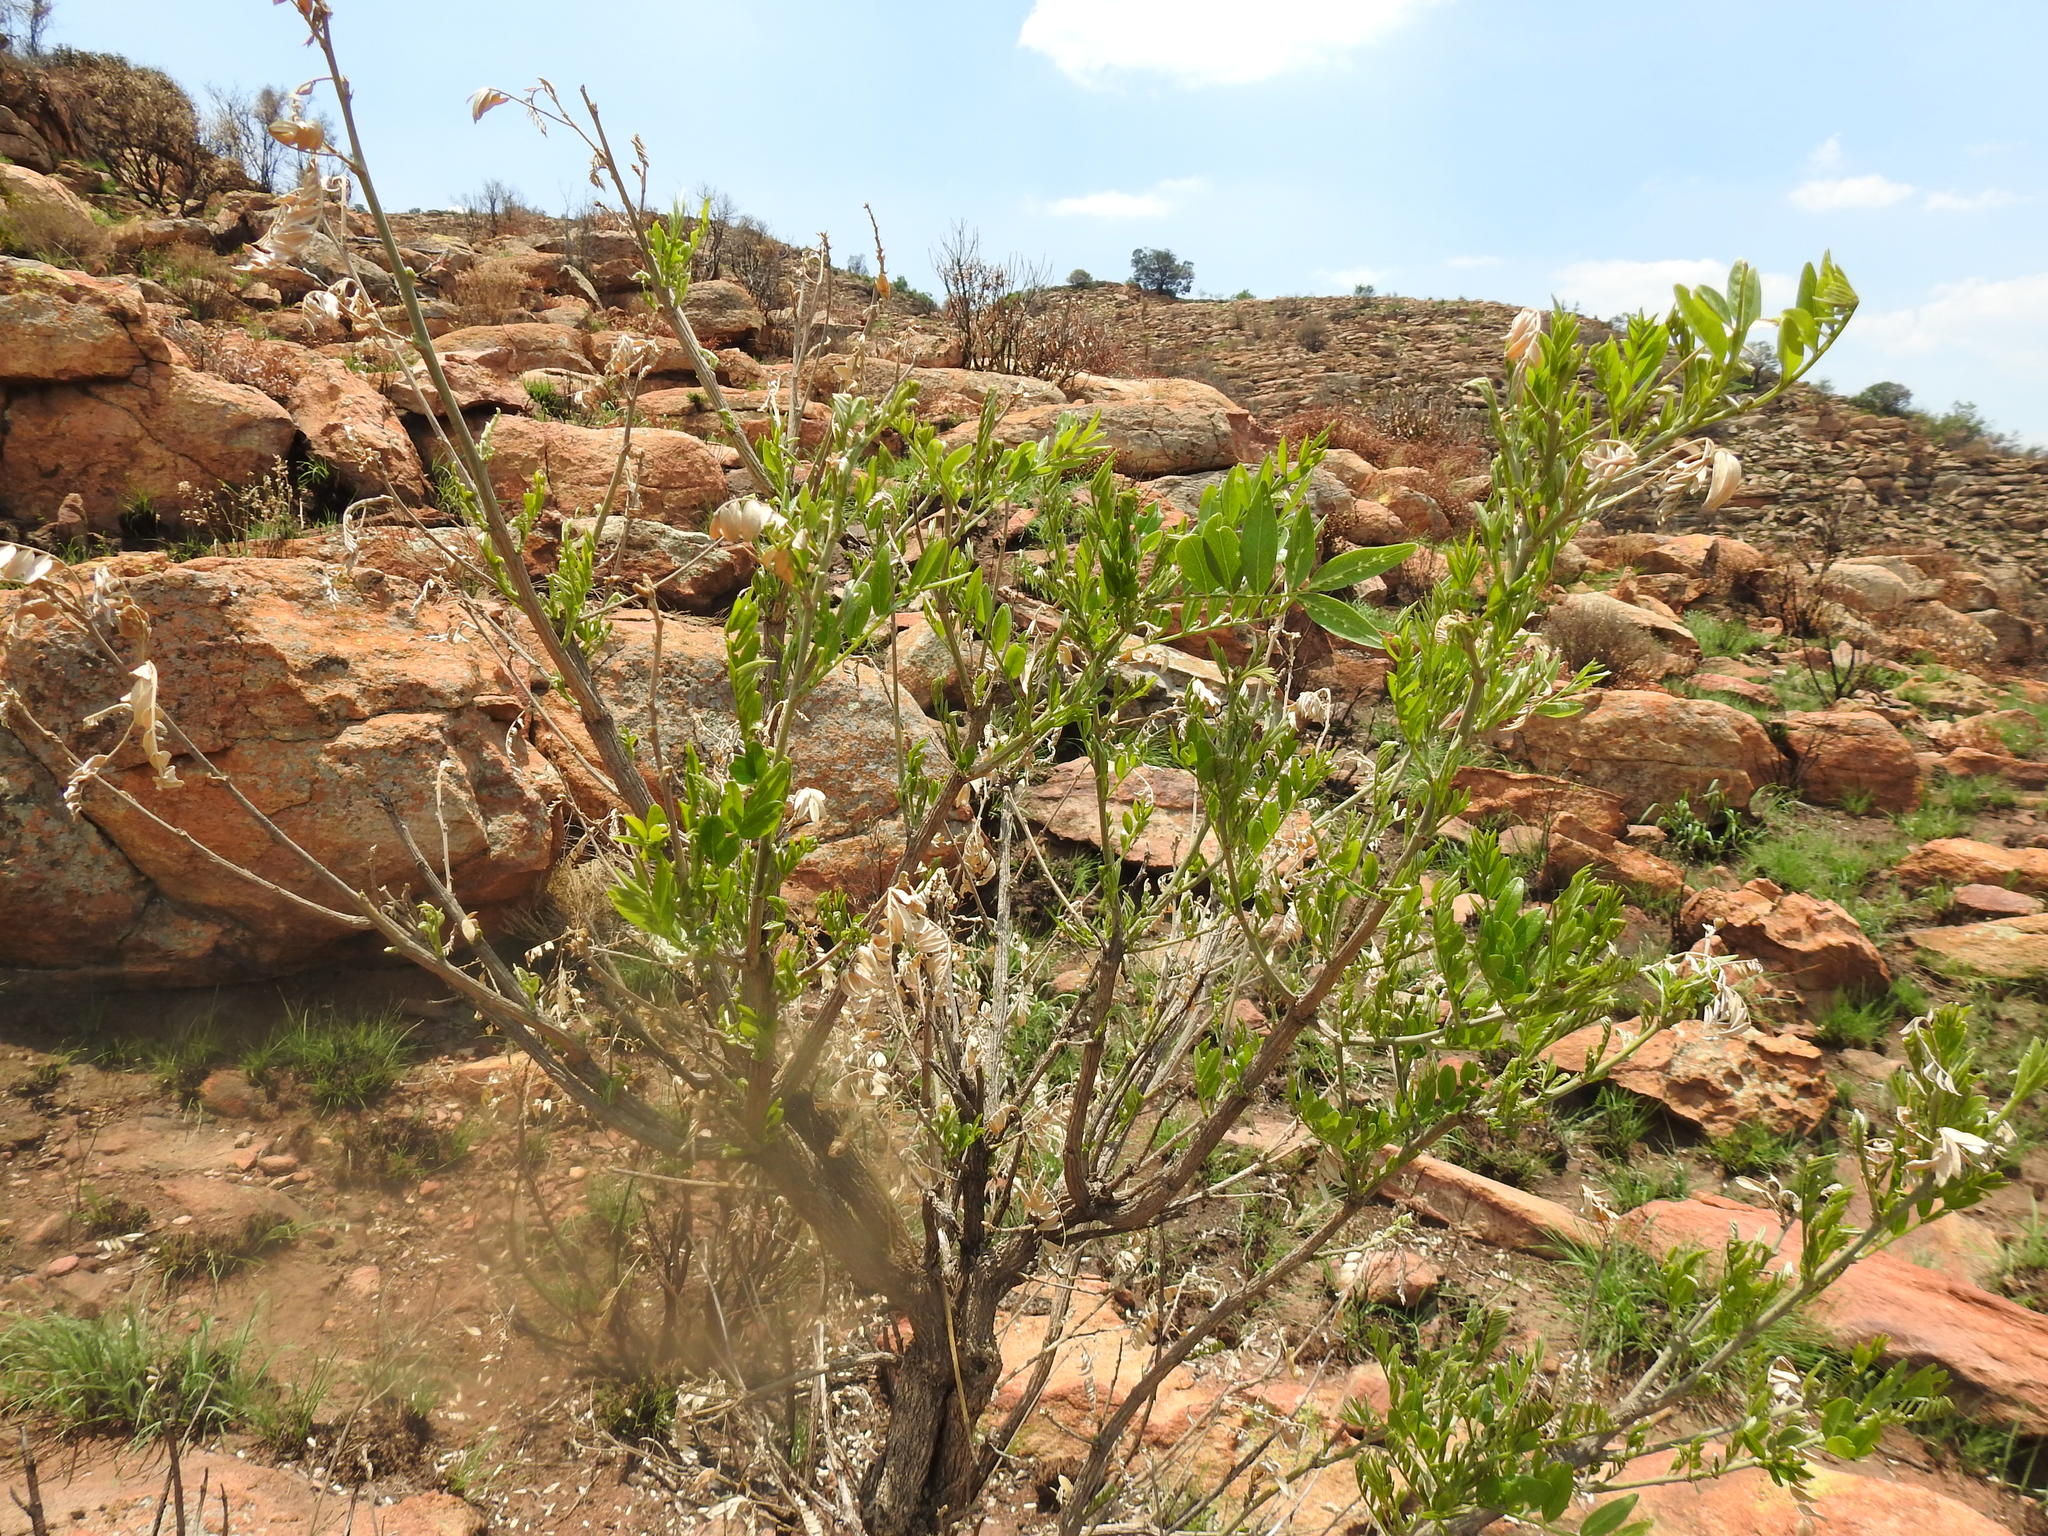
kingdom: Plantae
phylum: Tracheophyta
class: Magnoliopsida
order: Fabales
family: Fabaceae
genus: Mundulea
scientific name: Mundulea sericea
